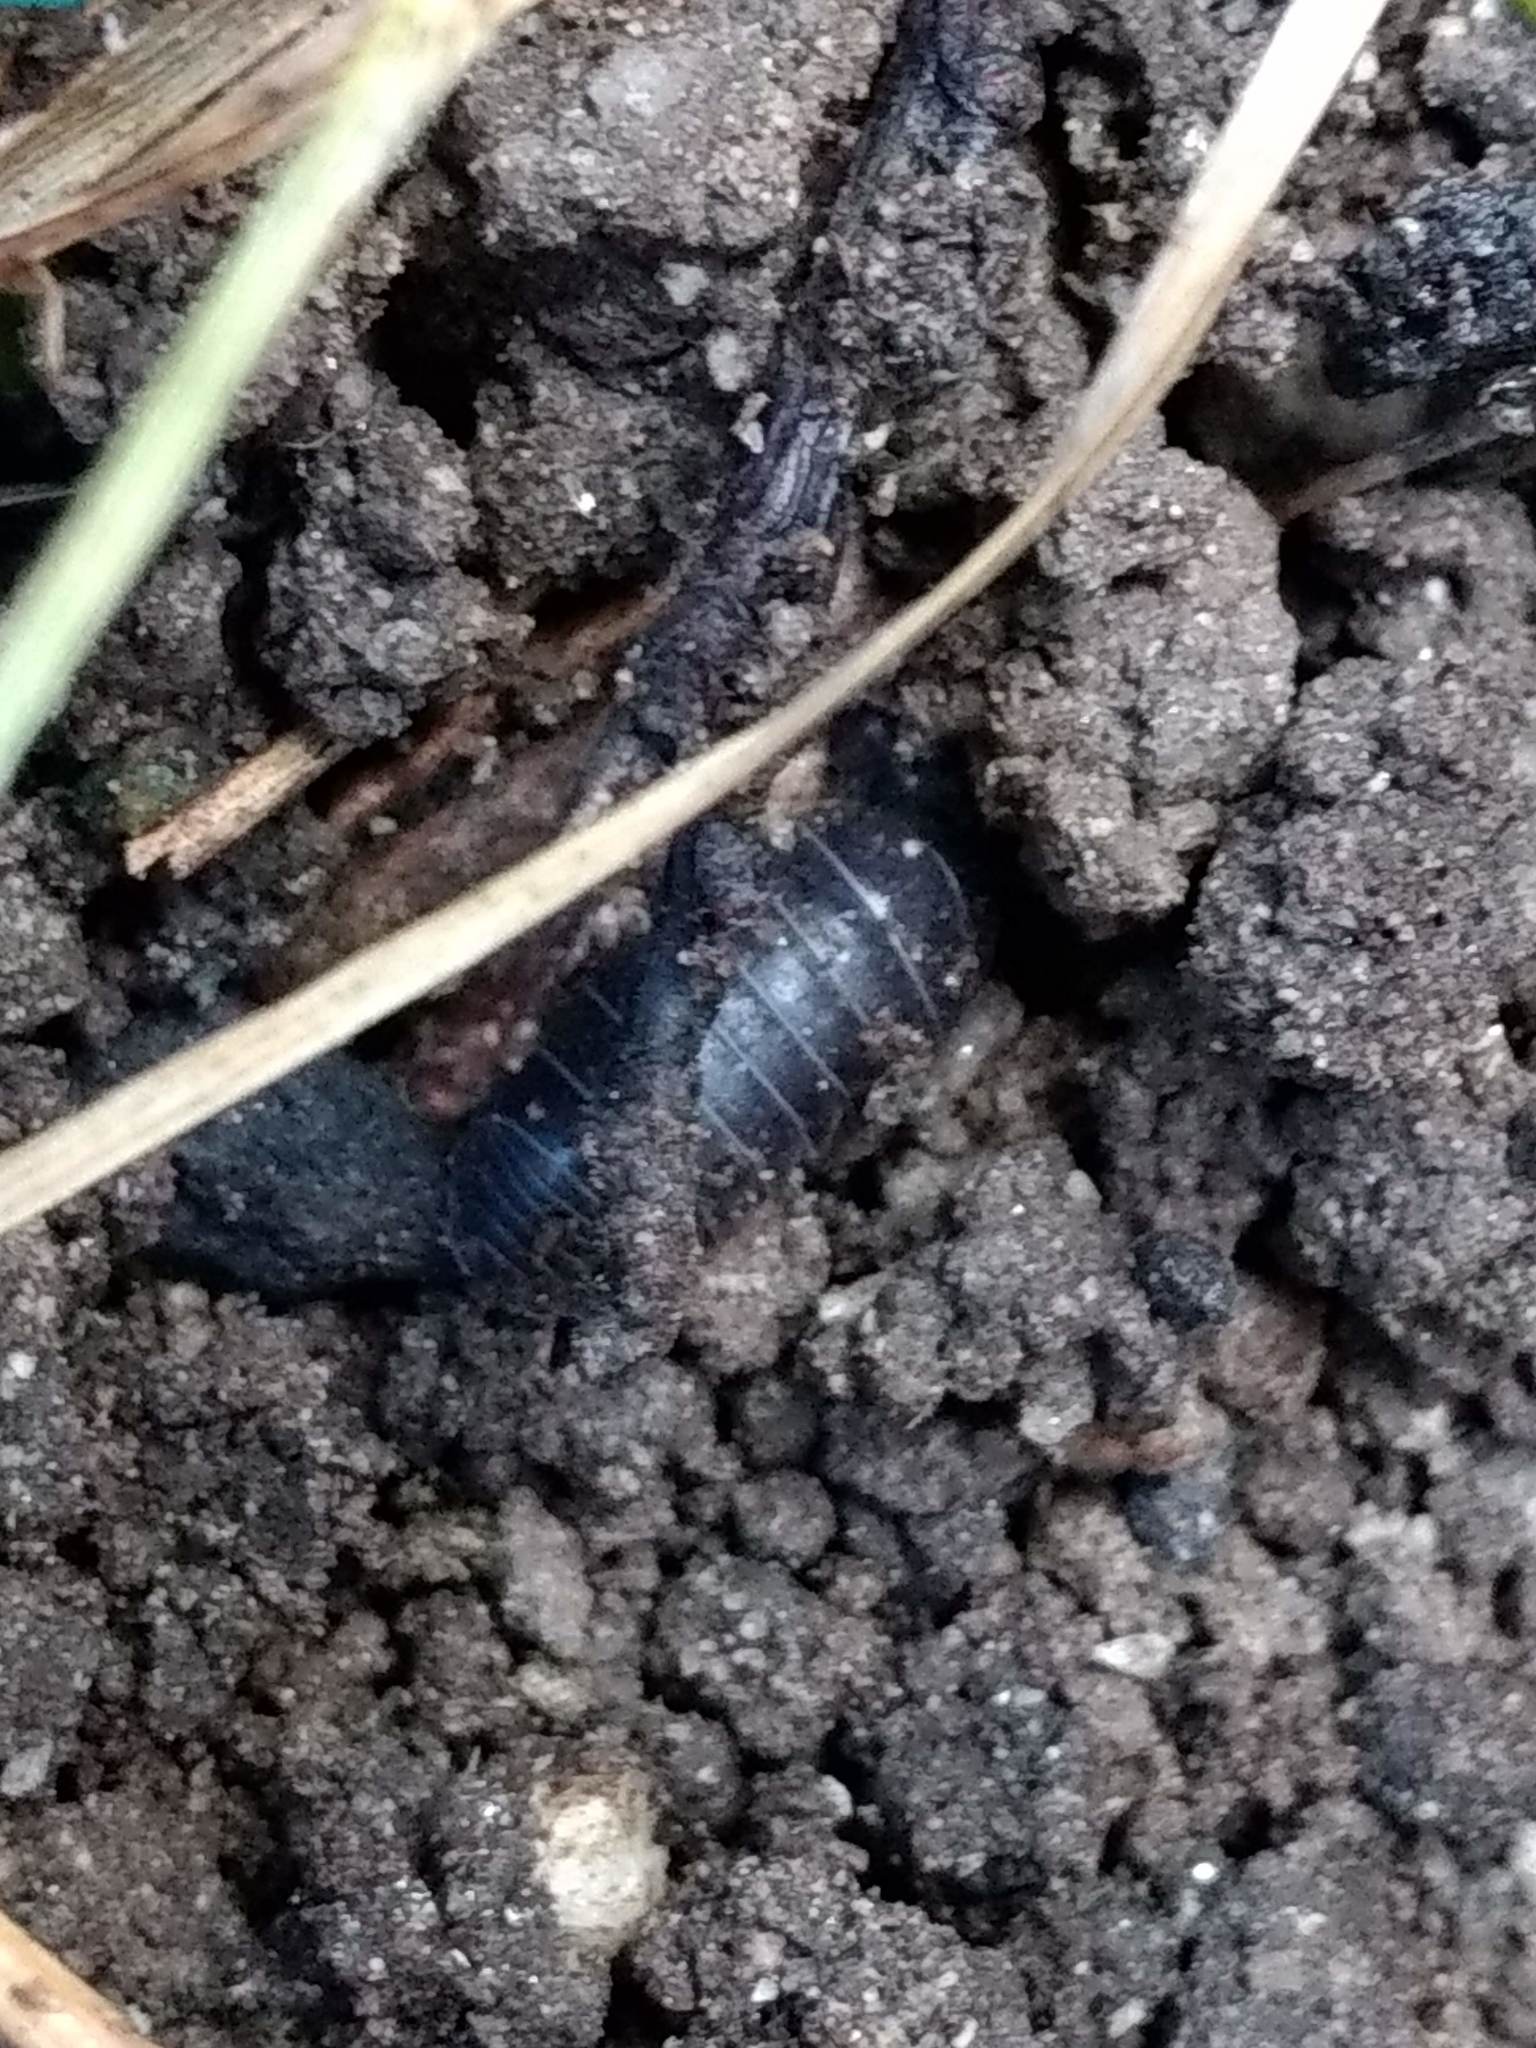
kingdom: Animalia
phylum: Arthropoda
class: Malacostraca
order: Isopoda
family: Armadillidiidae
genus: Armadillidium
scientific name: Armadillidium vulgare
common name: Common pill woodlouse
